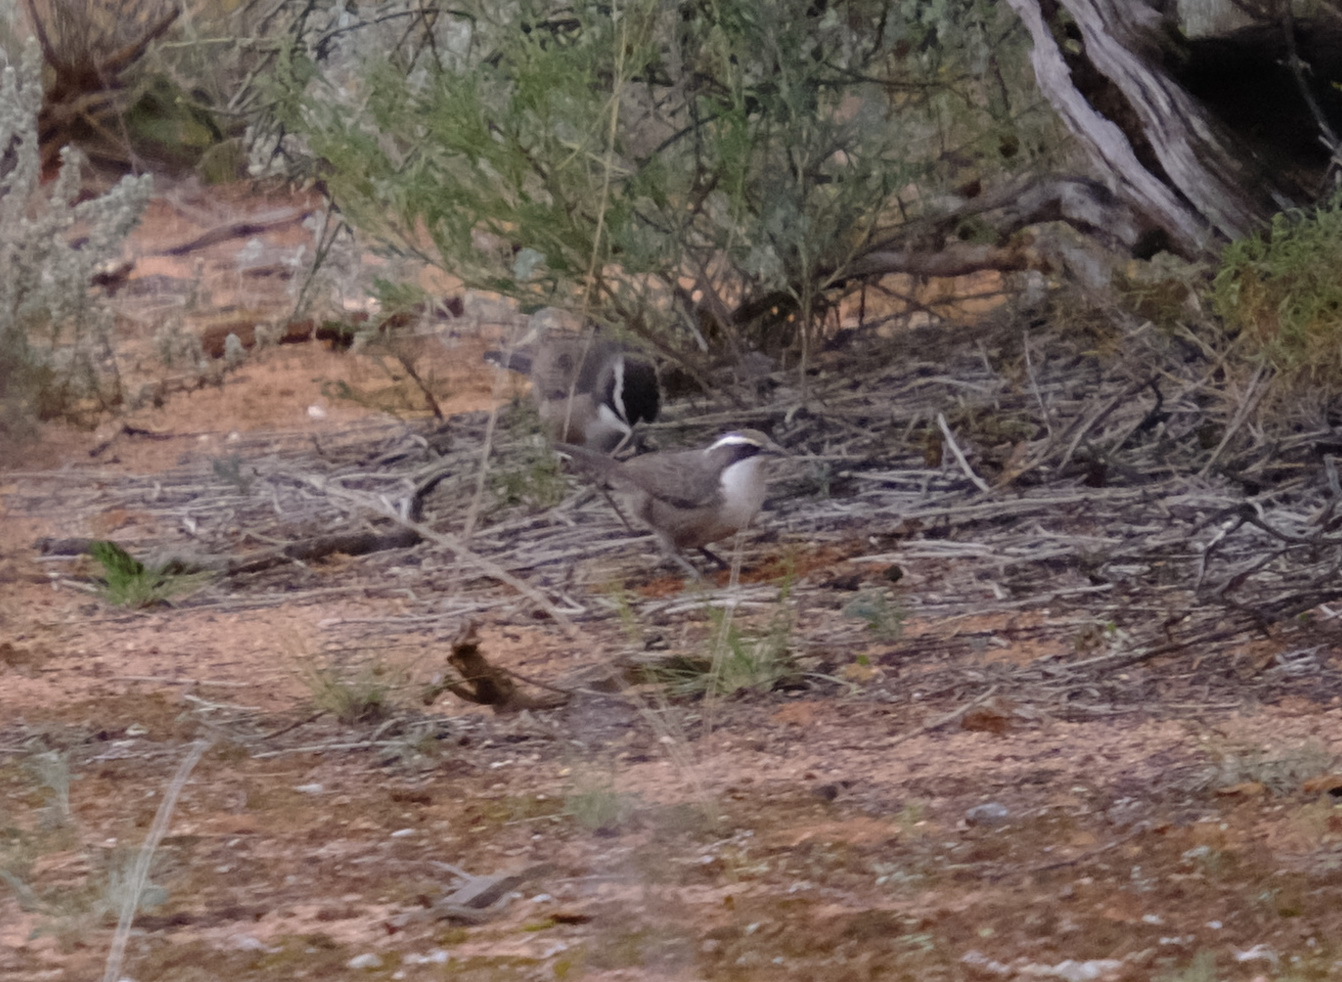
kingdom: Animalia
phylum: Chordata
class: Aves
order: Passeriformes
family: Pomatostomidae
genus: Pomatostomus
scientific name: Pomatostomus superciliosus
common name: White-browed babbler
